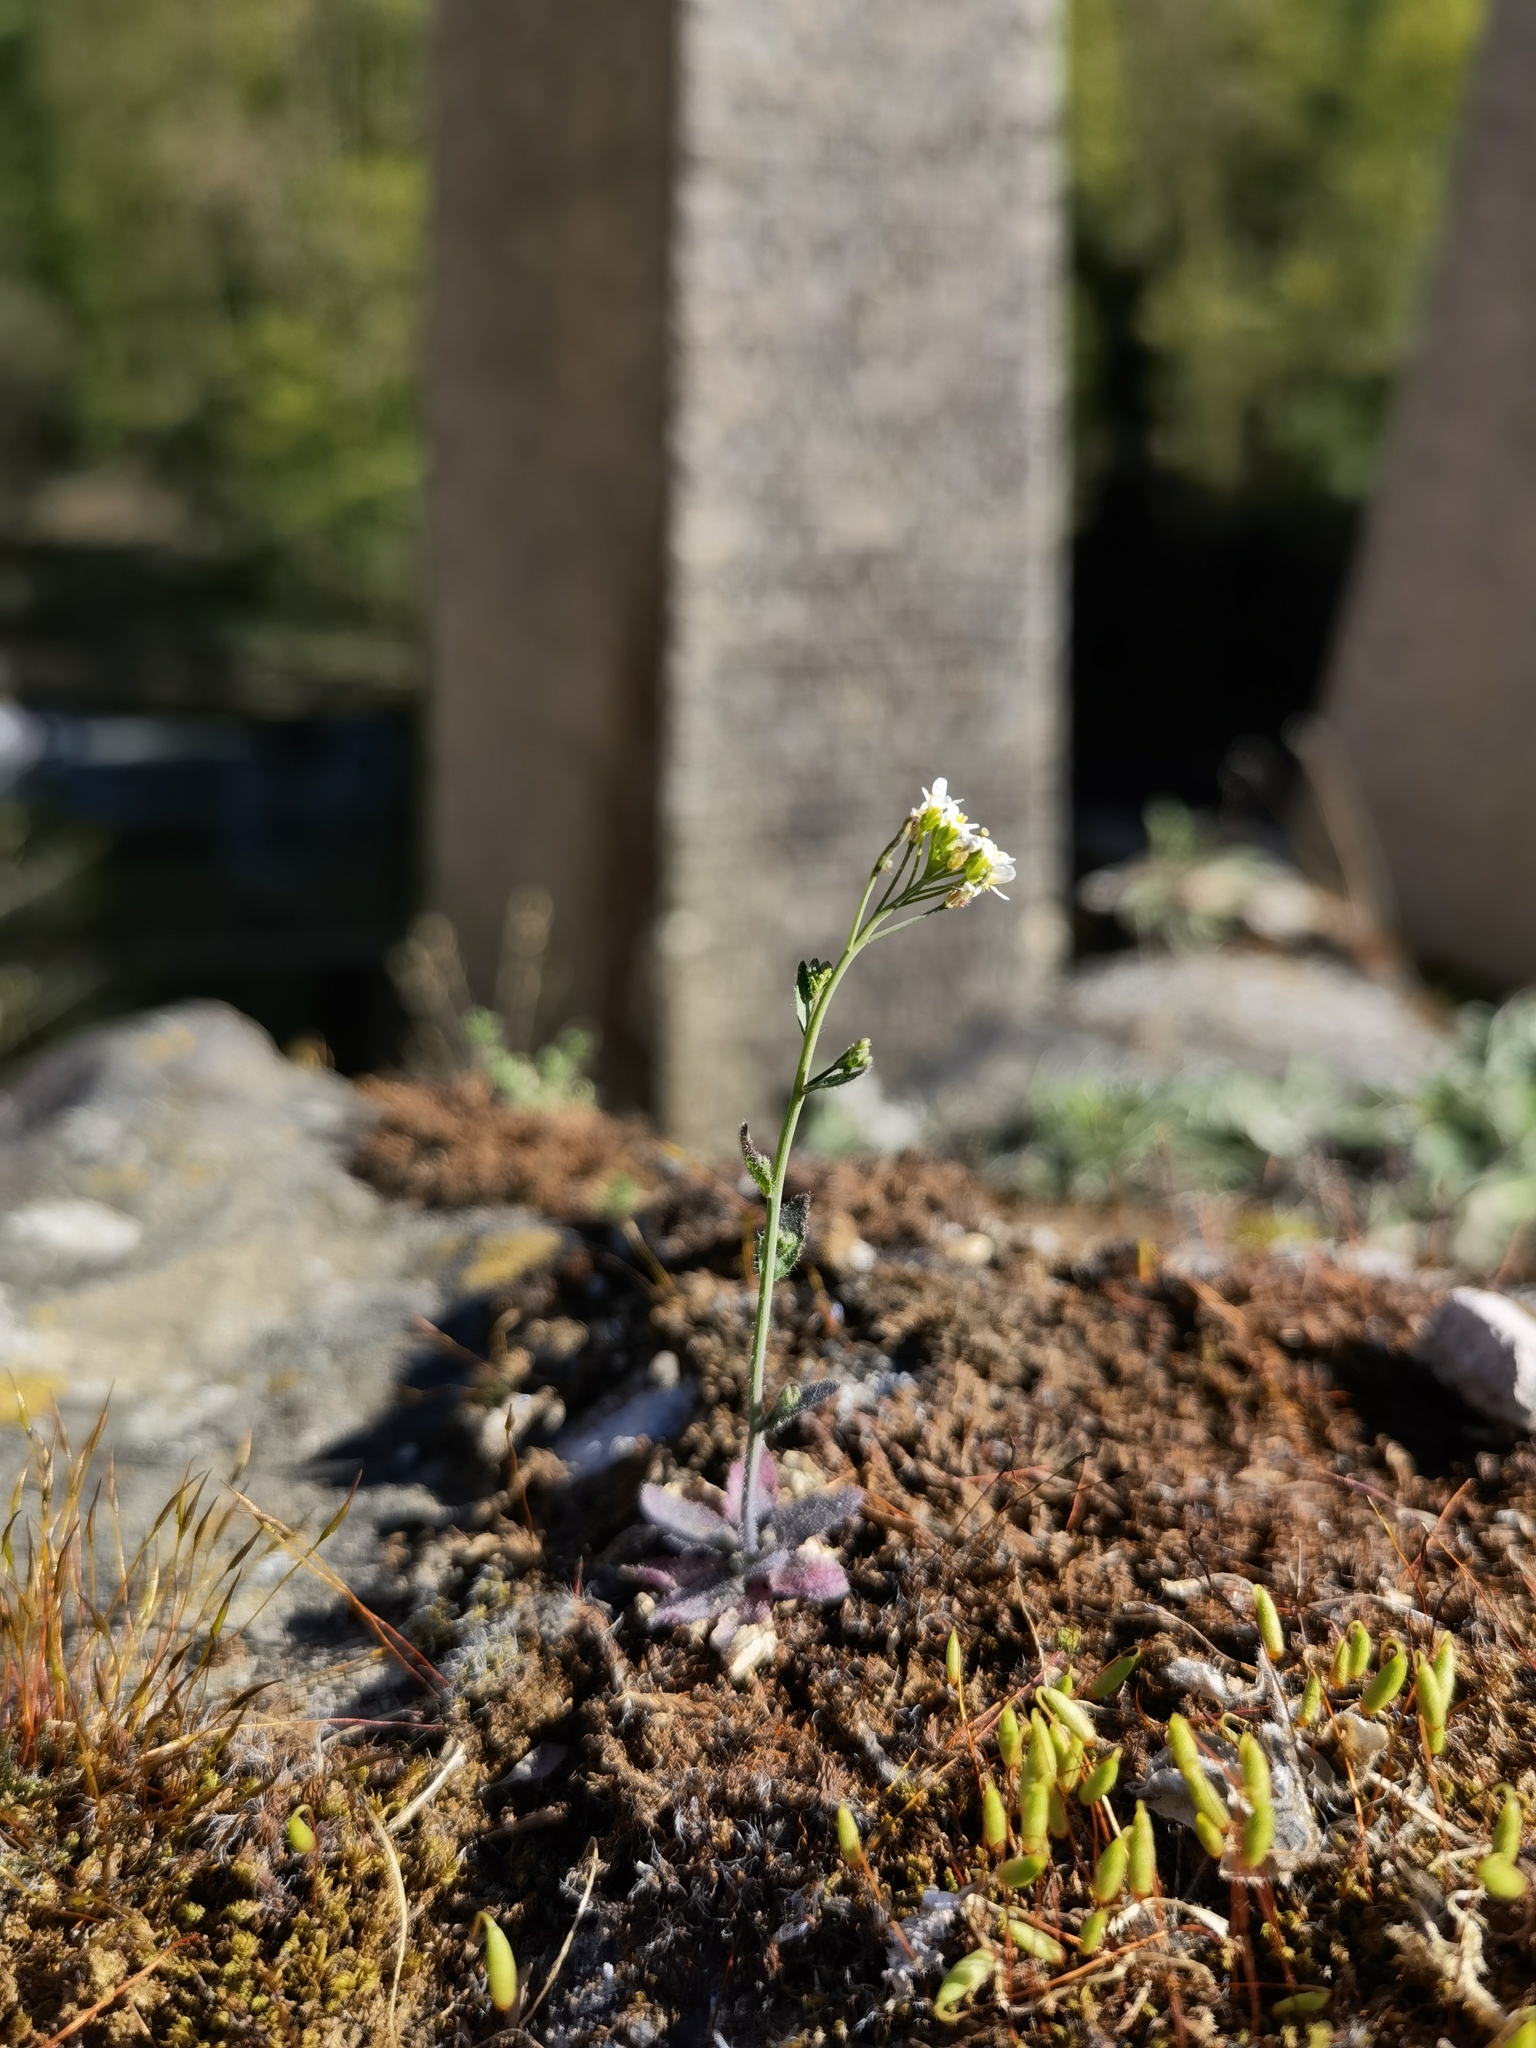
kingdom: Plantae
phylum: Tracheophyta
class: Magnoliopsida
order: Brassicales
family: Brassicaceae
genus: Arabidopsis
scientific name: Arabidopsis thaliana
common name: Thale cress
